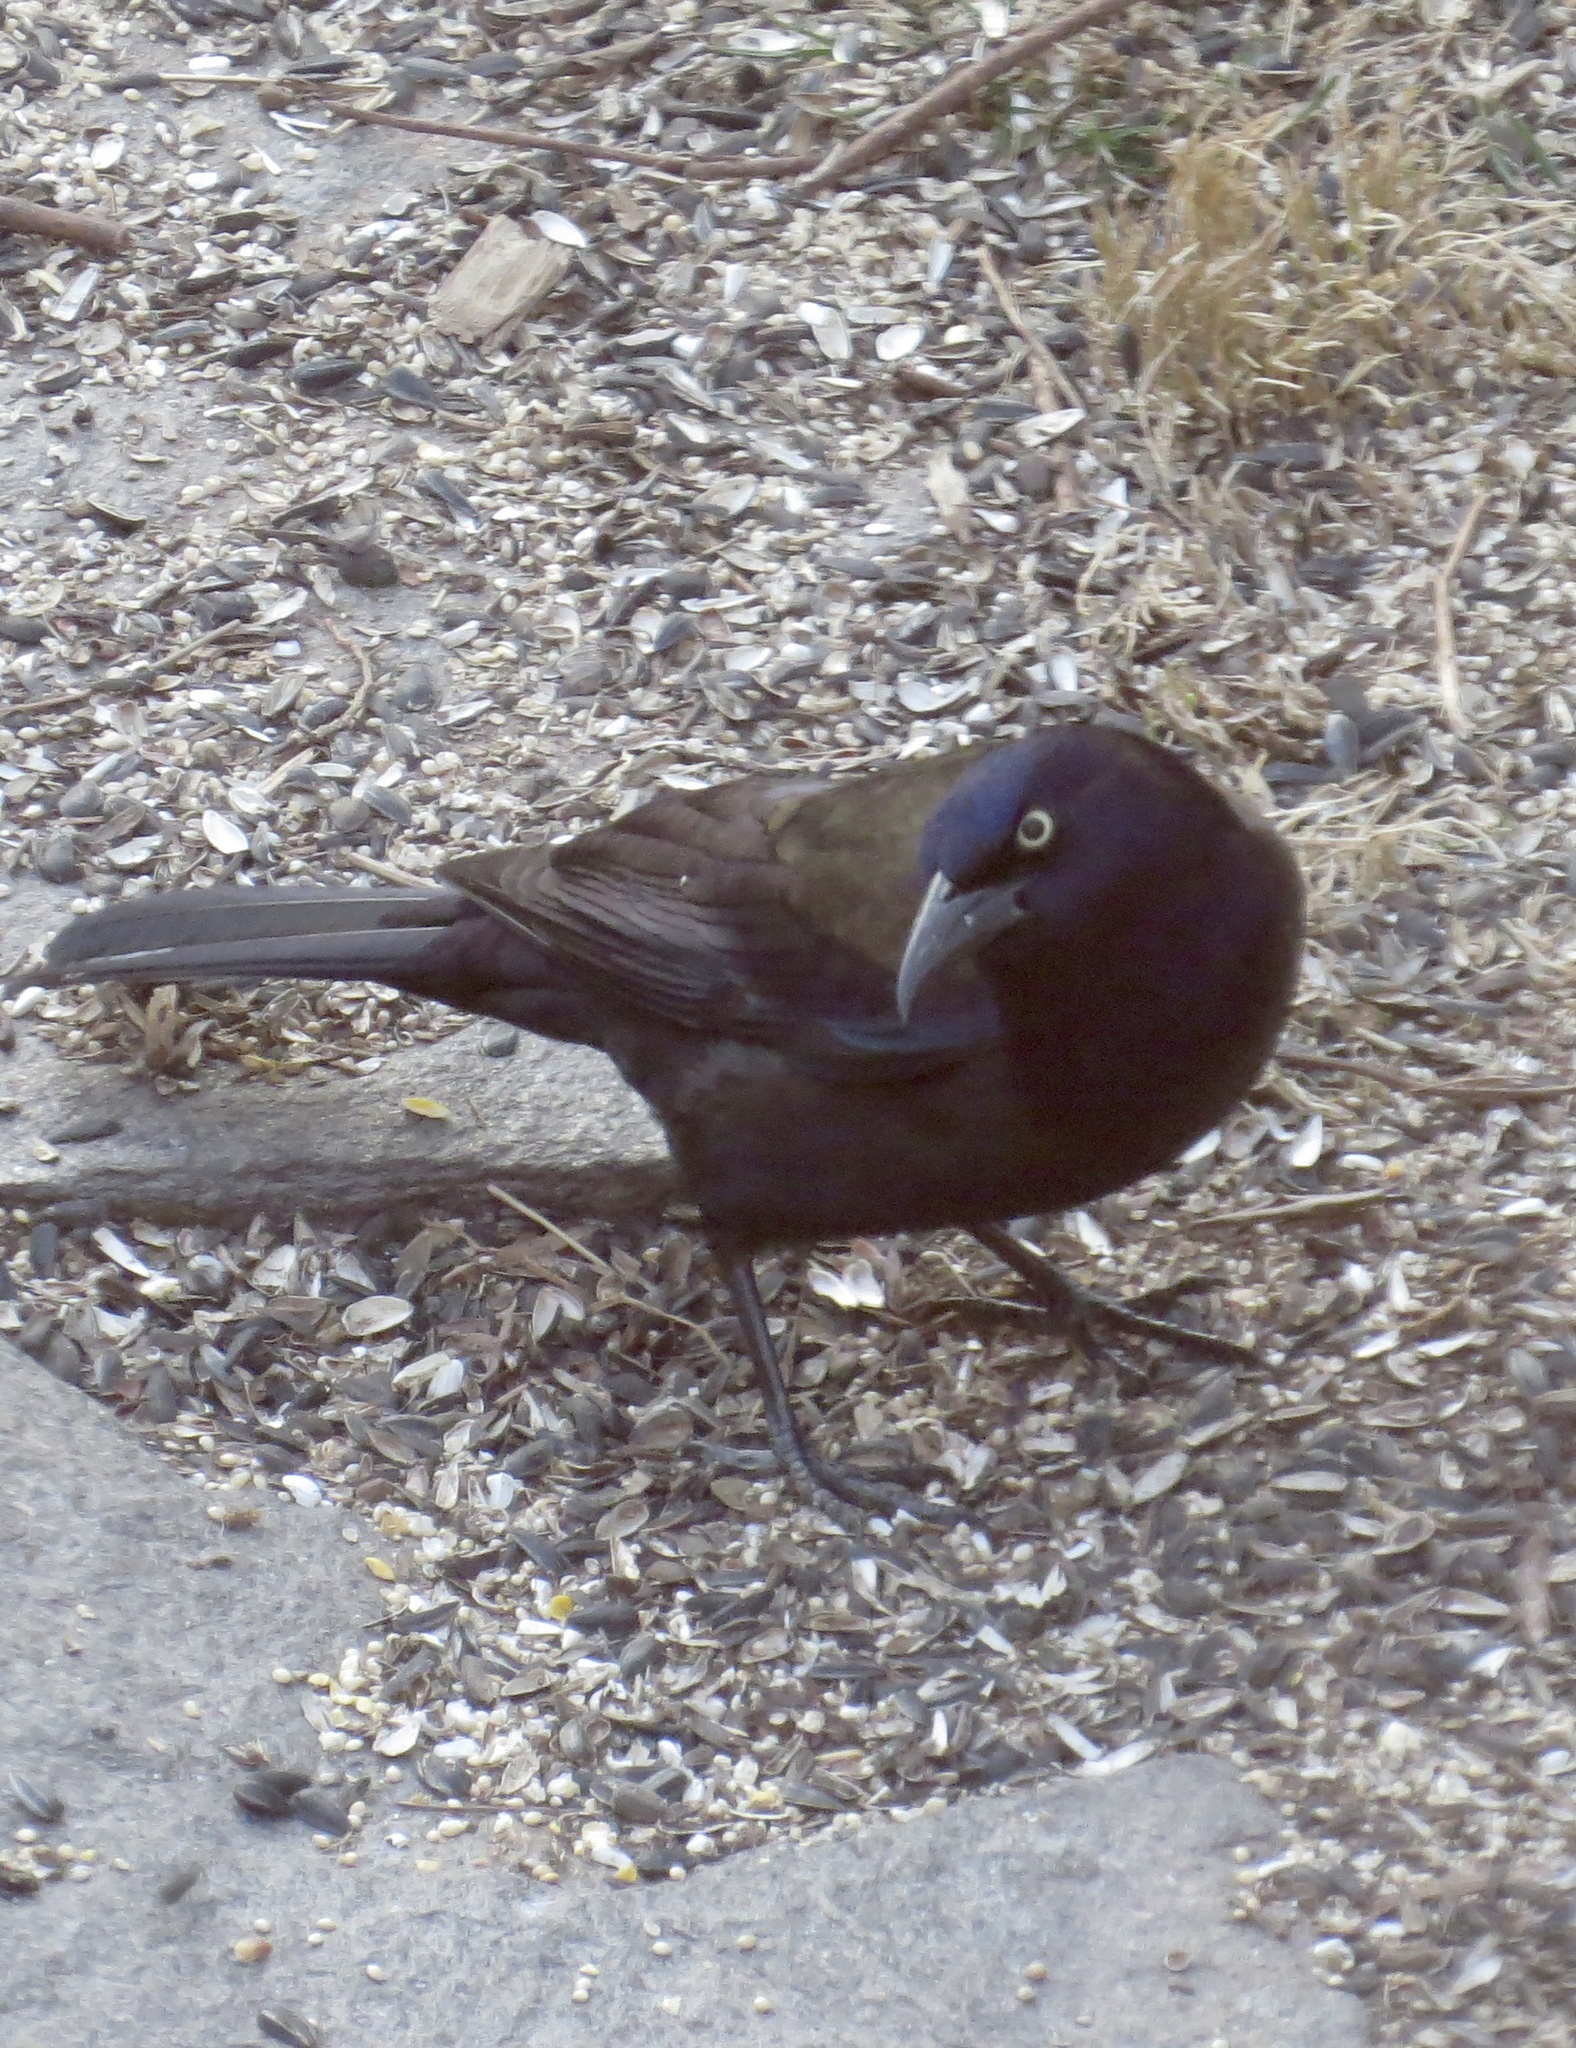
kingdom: Animalia
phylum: Chordata
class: Aves
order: Passeriformes
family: Icteridae
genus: Quiscalus
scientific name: Quiscalus quiscula
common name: Common grackle
